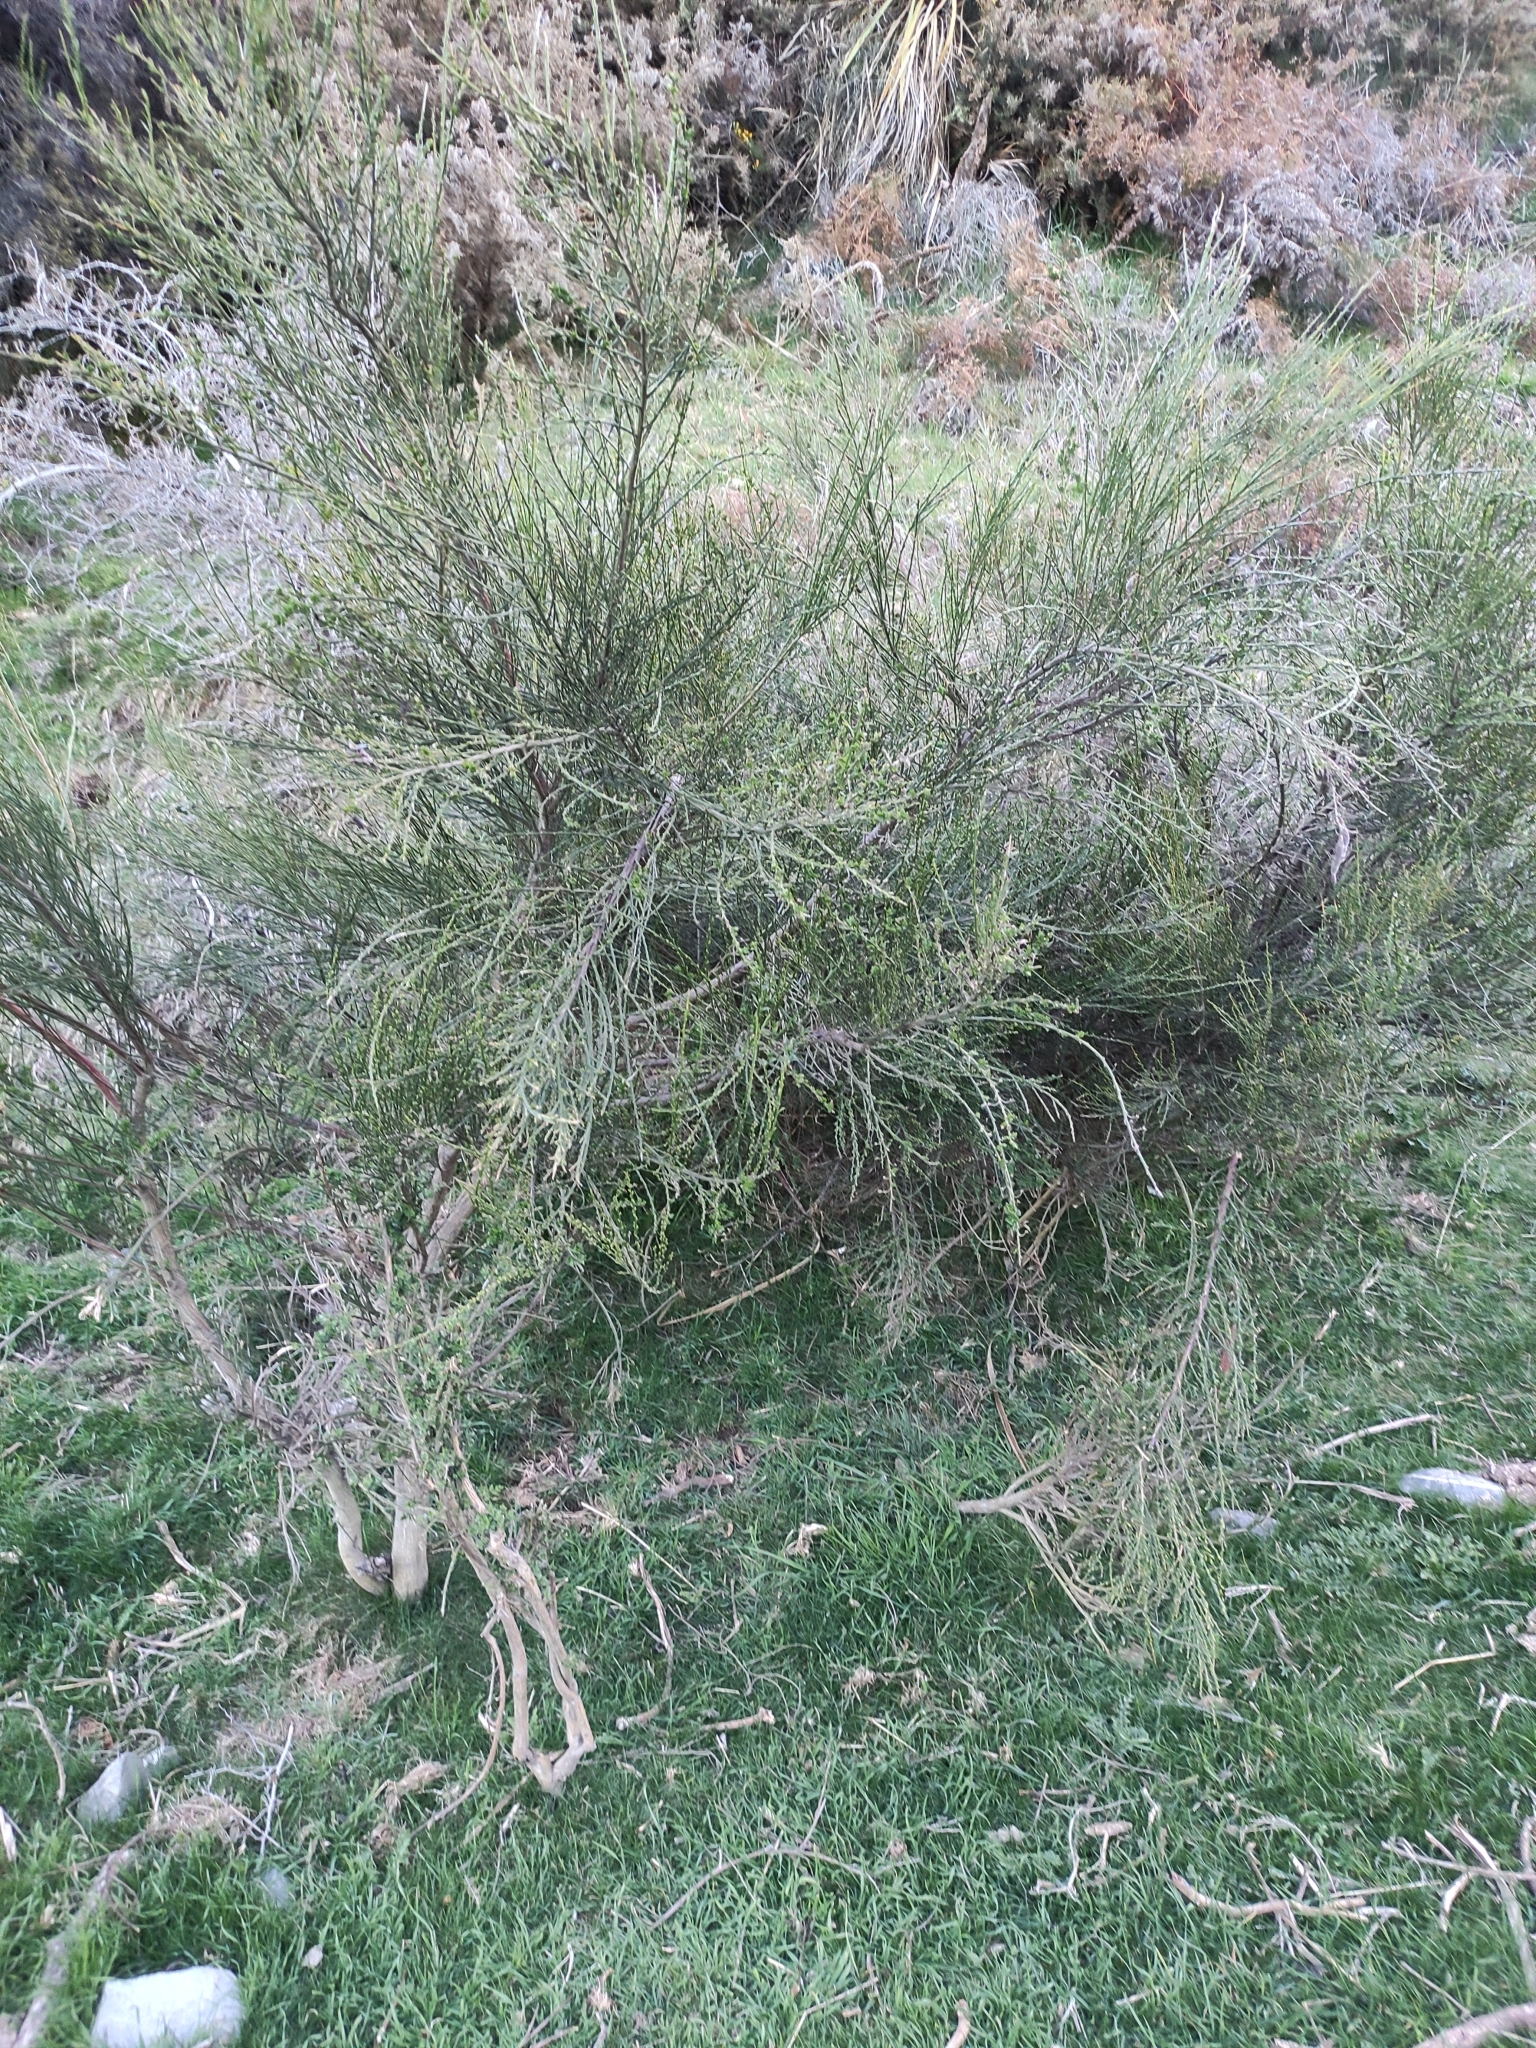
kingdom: Plantae
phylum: Tracheophyta
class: Magnoliopsida
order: Fabales
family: Fabaceae
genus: Cytisus
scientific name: Cytisus scoparius
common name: Scotch broom
